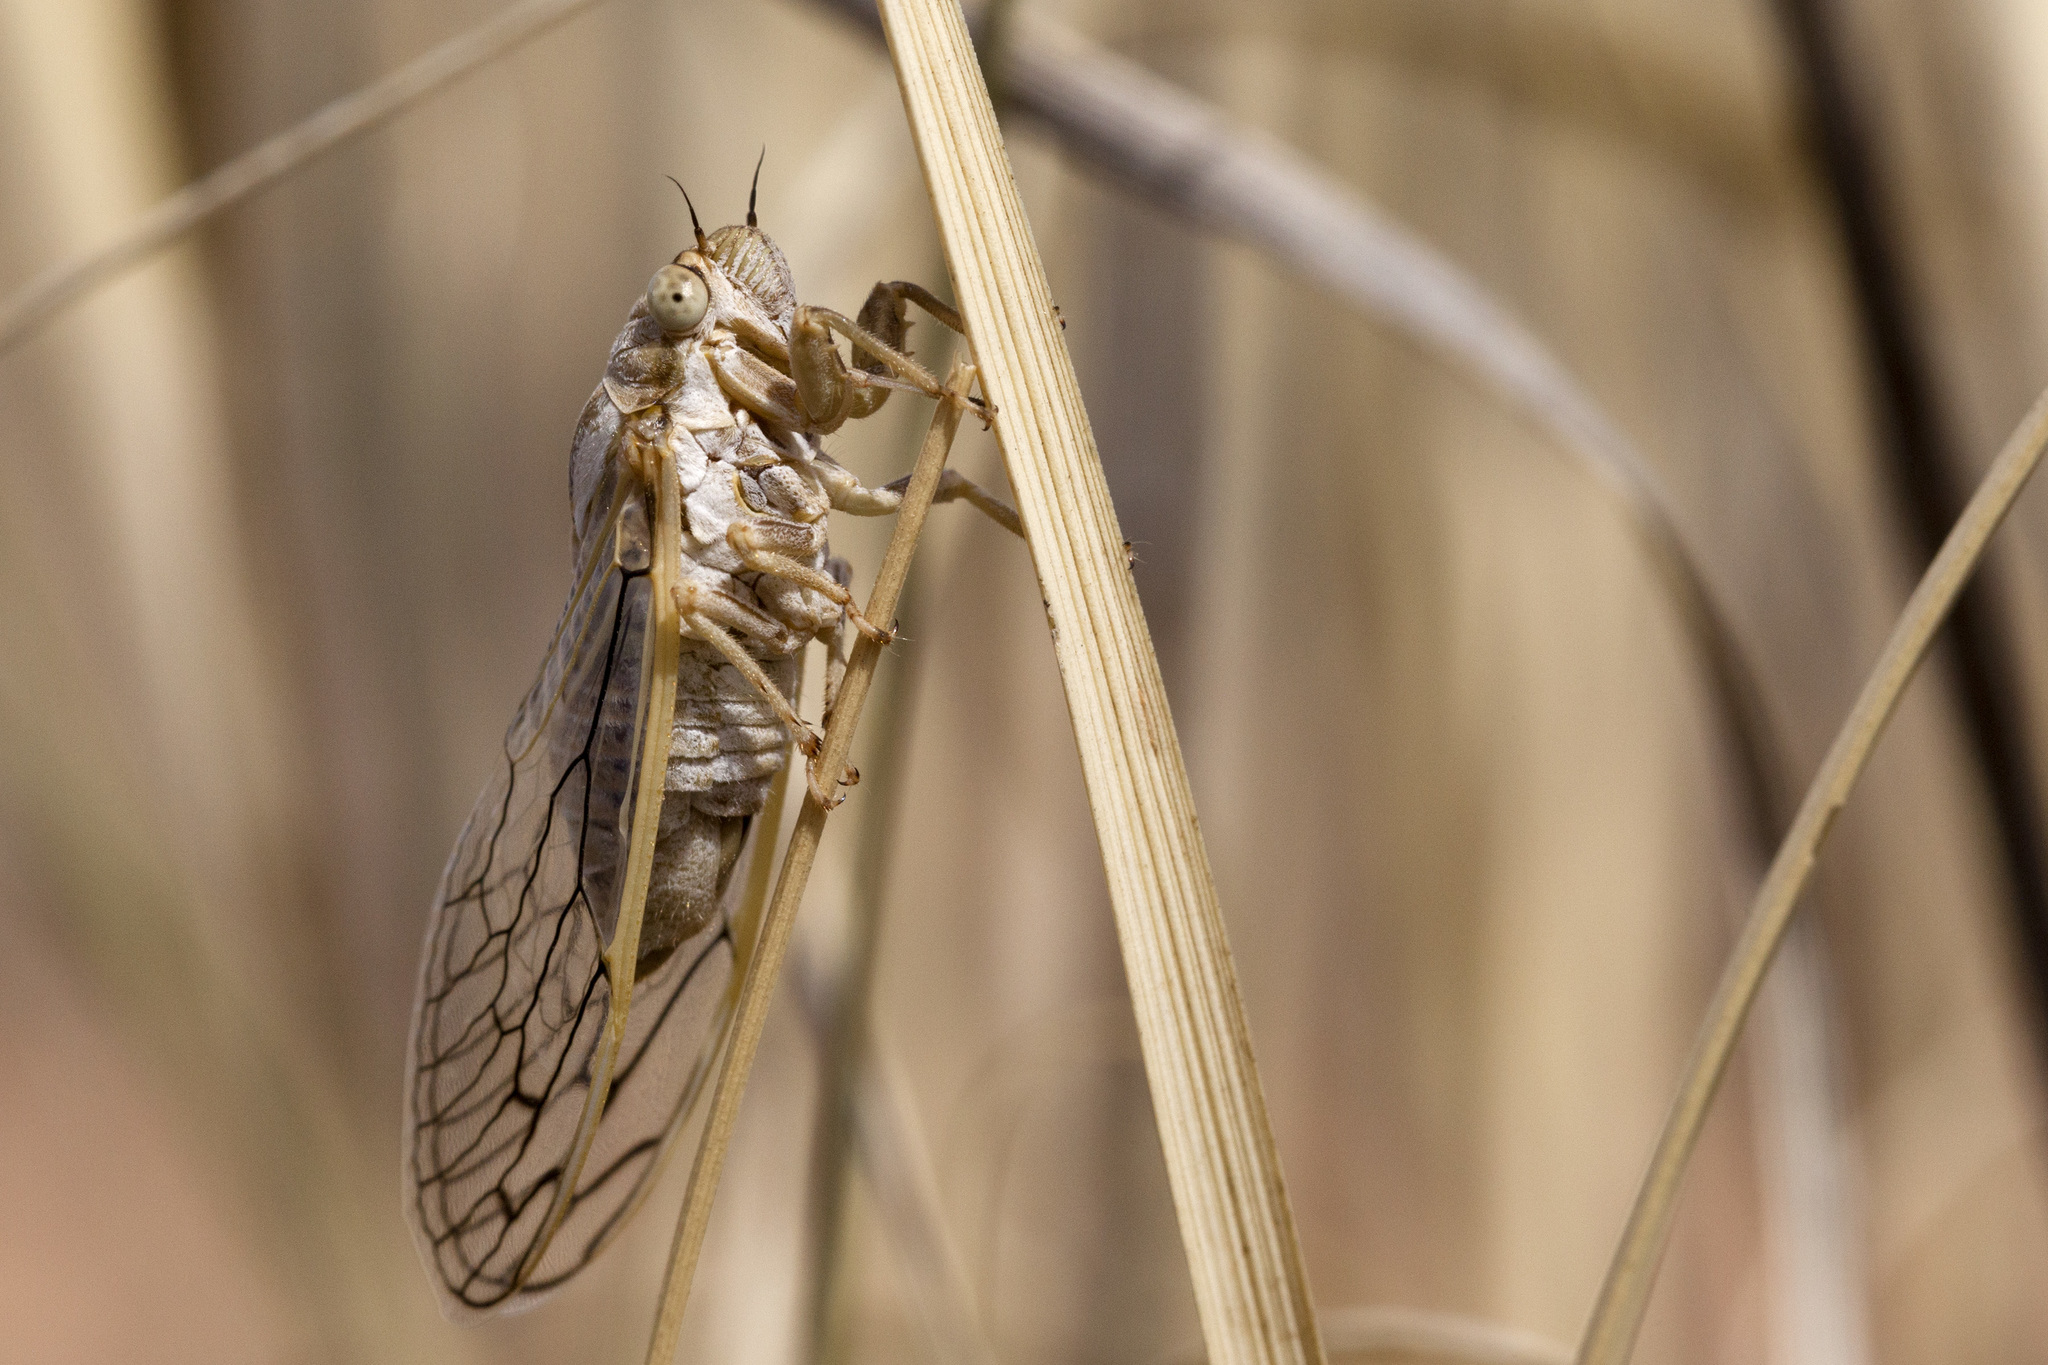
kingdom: Animalia
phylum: Arthropoda
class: Insecta
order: Hemiptera
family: Cicadidae
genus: Beameria
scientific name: Beameria wheeleri
